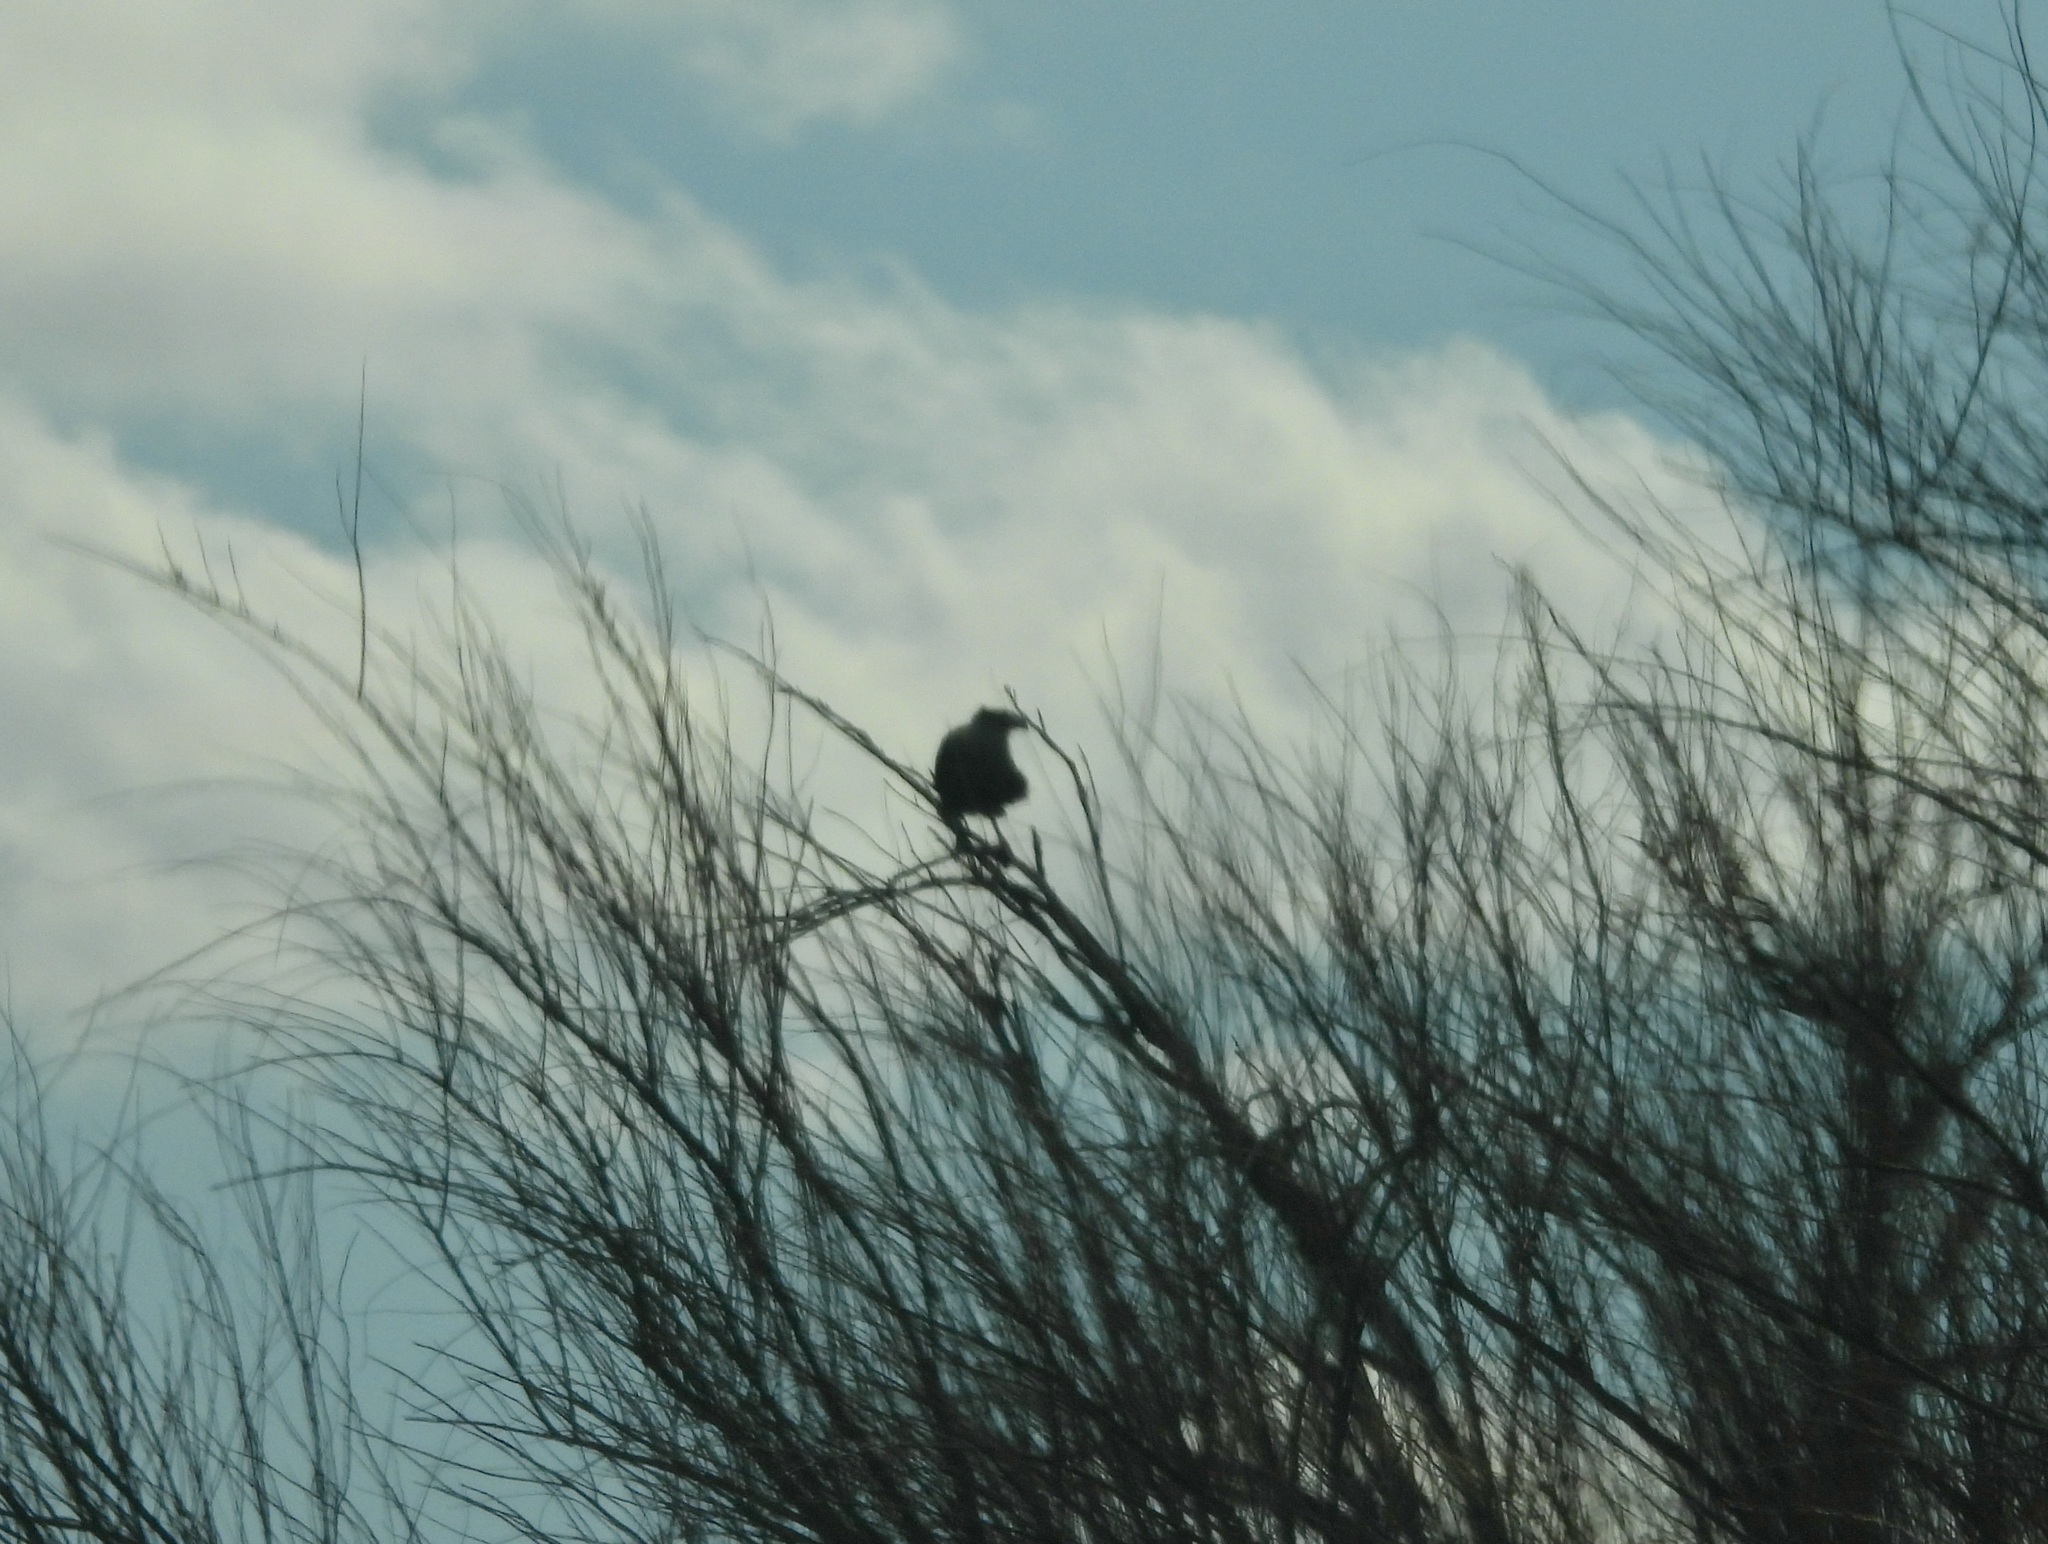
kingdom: Animalia
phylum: Chordata
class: Aves
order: Falconiformes
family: Falconidae
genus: Caracara
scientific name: Caracara plancus
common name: Southern caracara
